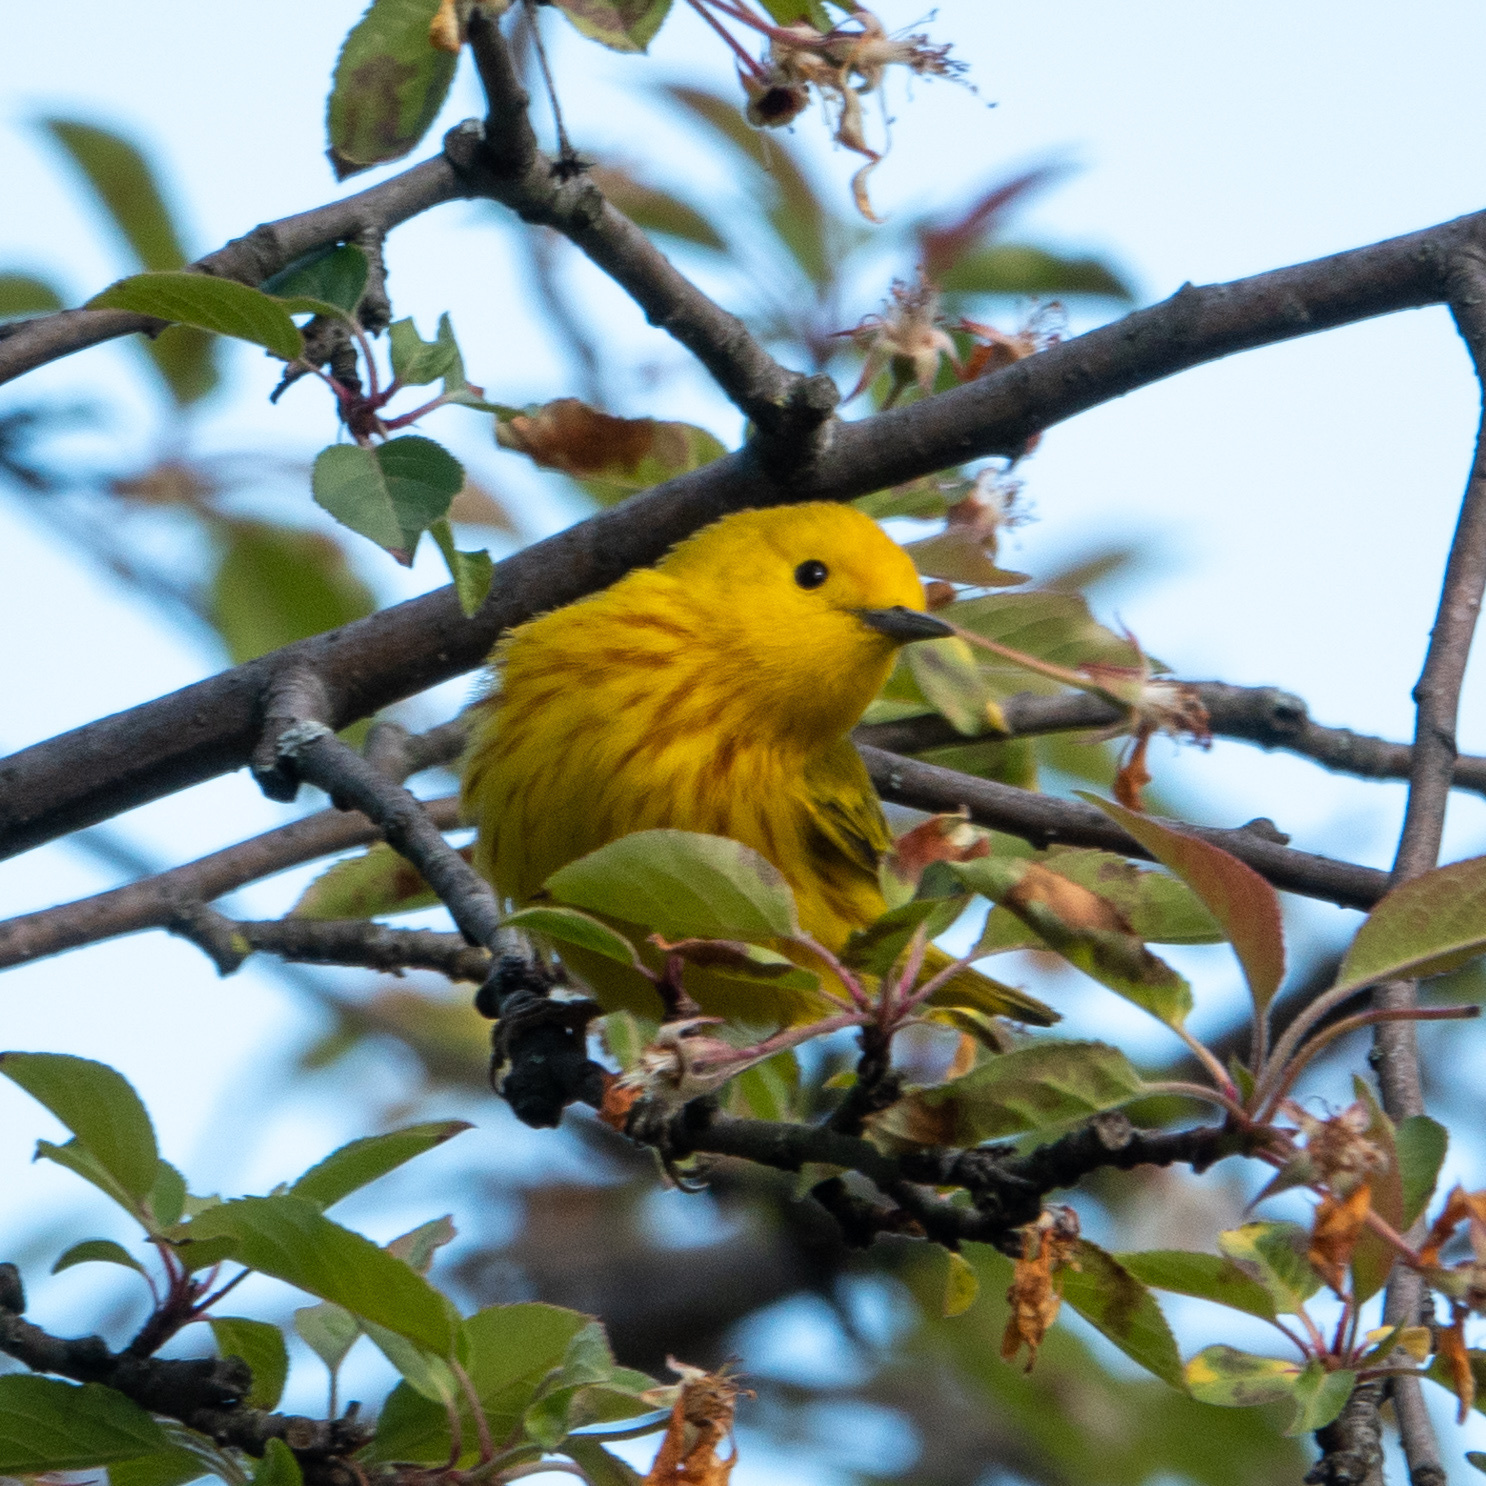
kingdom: Animalia
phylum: Chordata
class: Aves
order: Passeriformes
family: Parulidae
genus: Setophaga
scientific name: Setophaga petechia
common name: Yellow warbler
